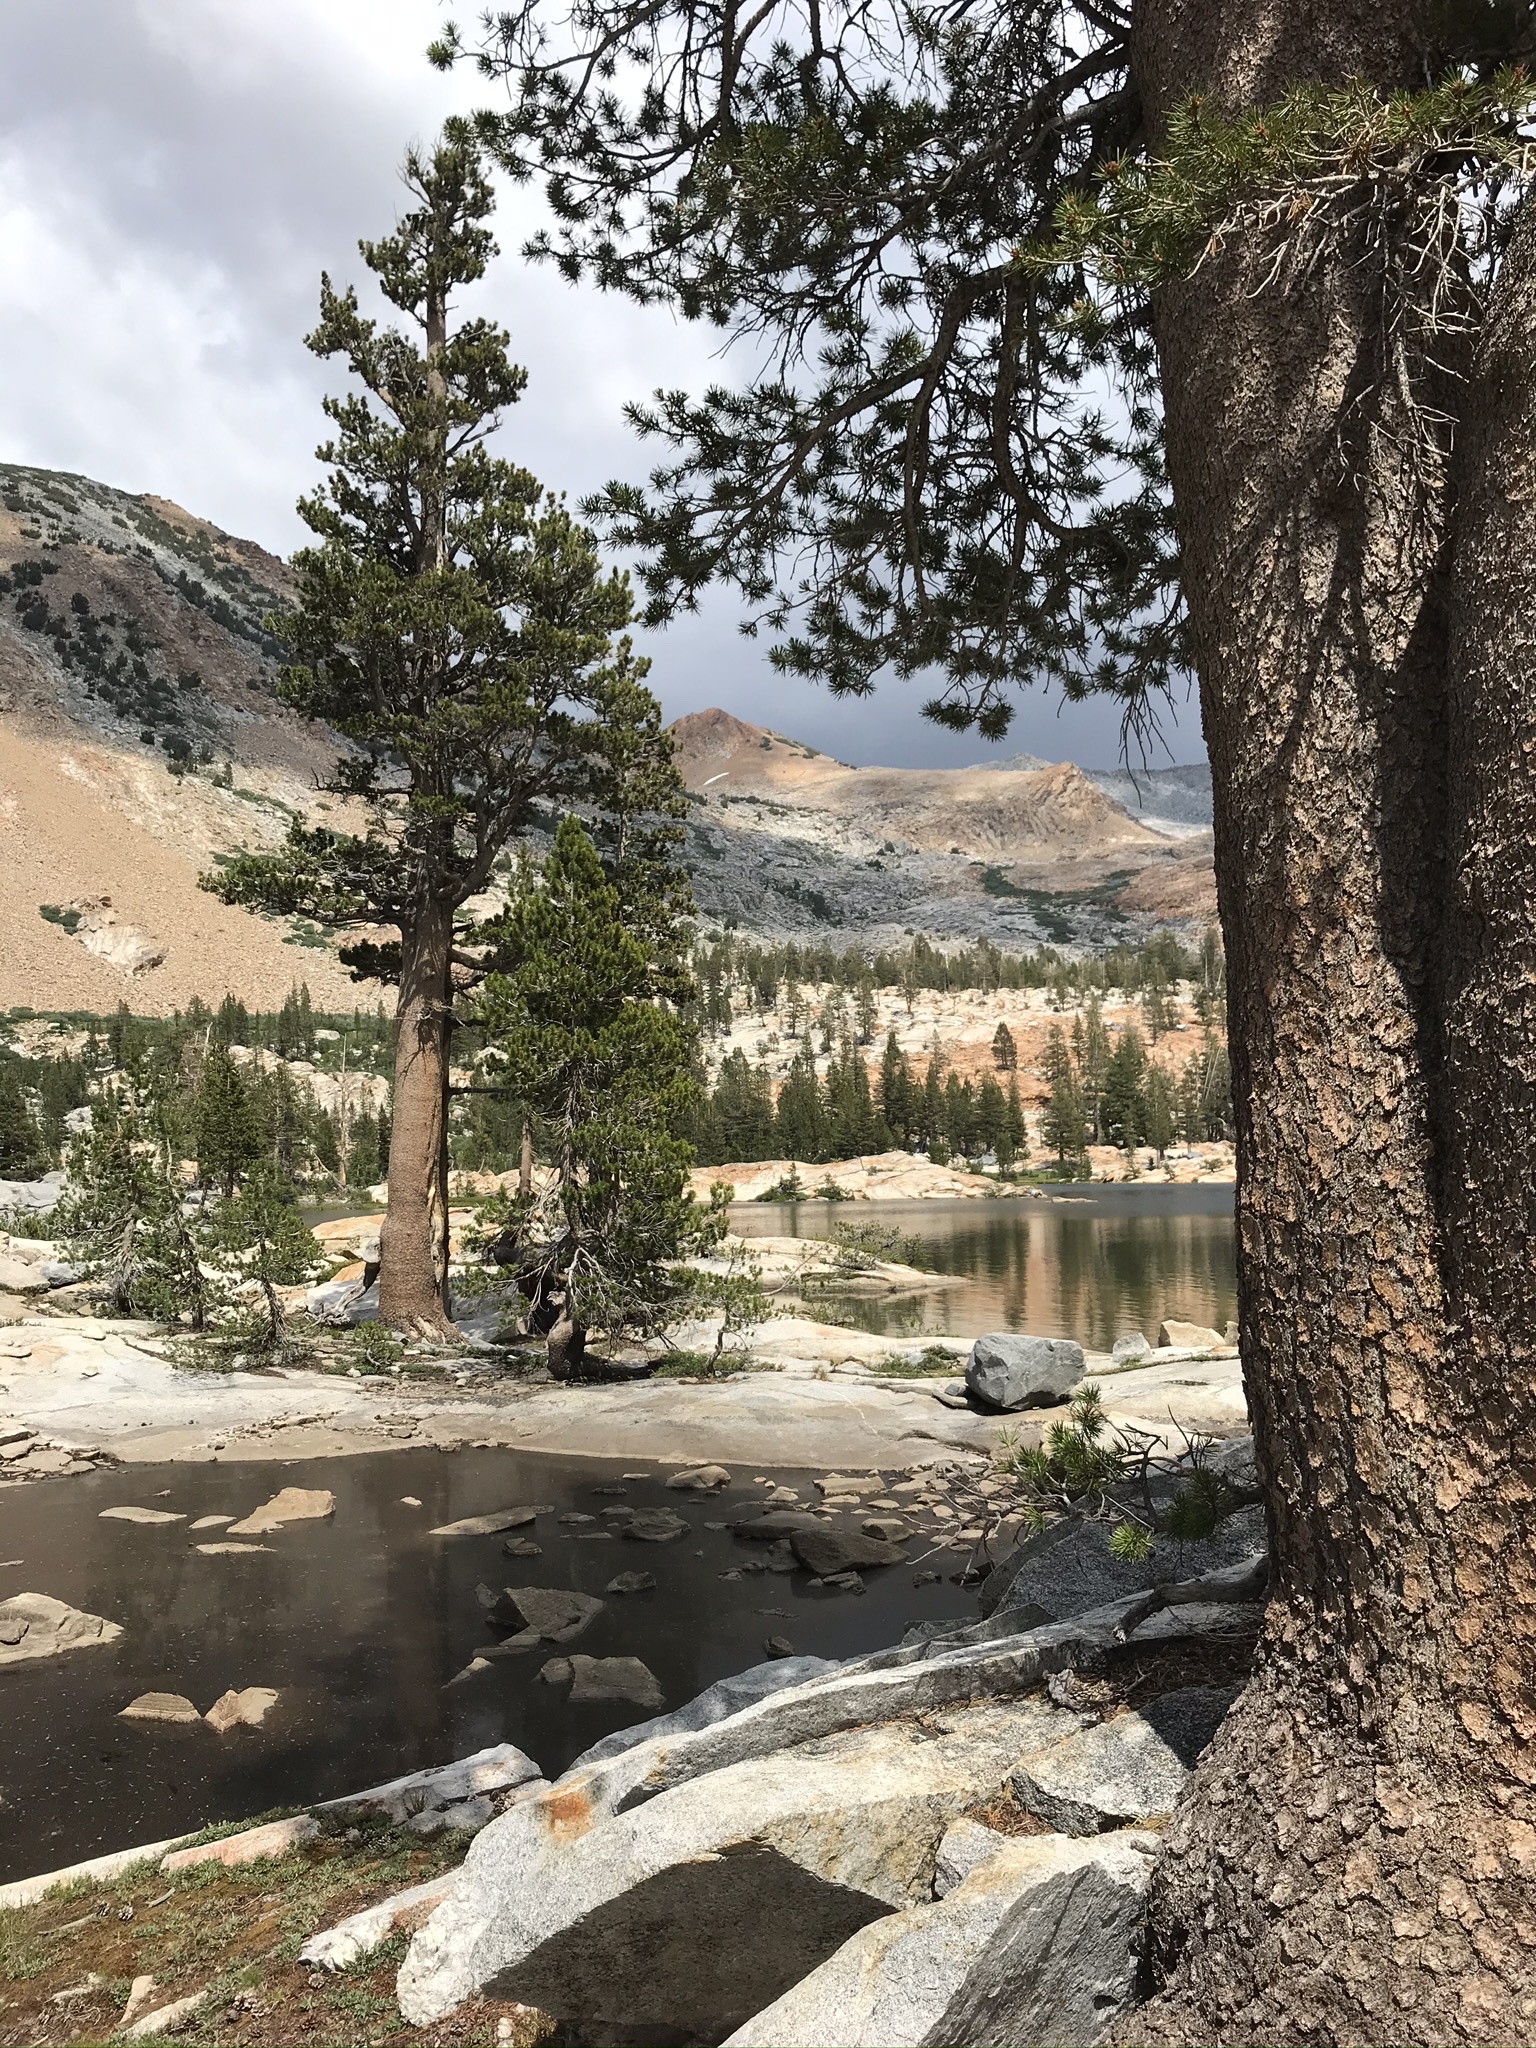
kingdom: Plantae
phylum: Tracheophyta
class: Pinopsida
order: Pinales
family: Pinaceae
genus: Pinus
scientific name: Pinus contorta
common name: Lodgepole pine
